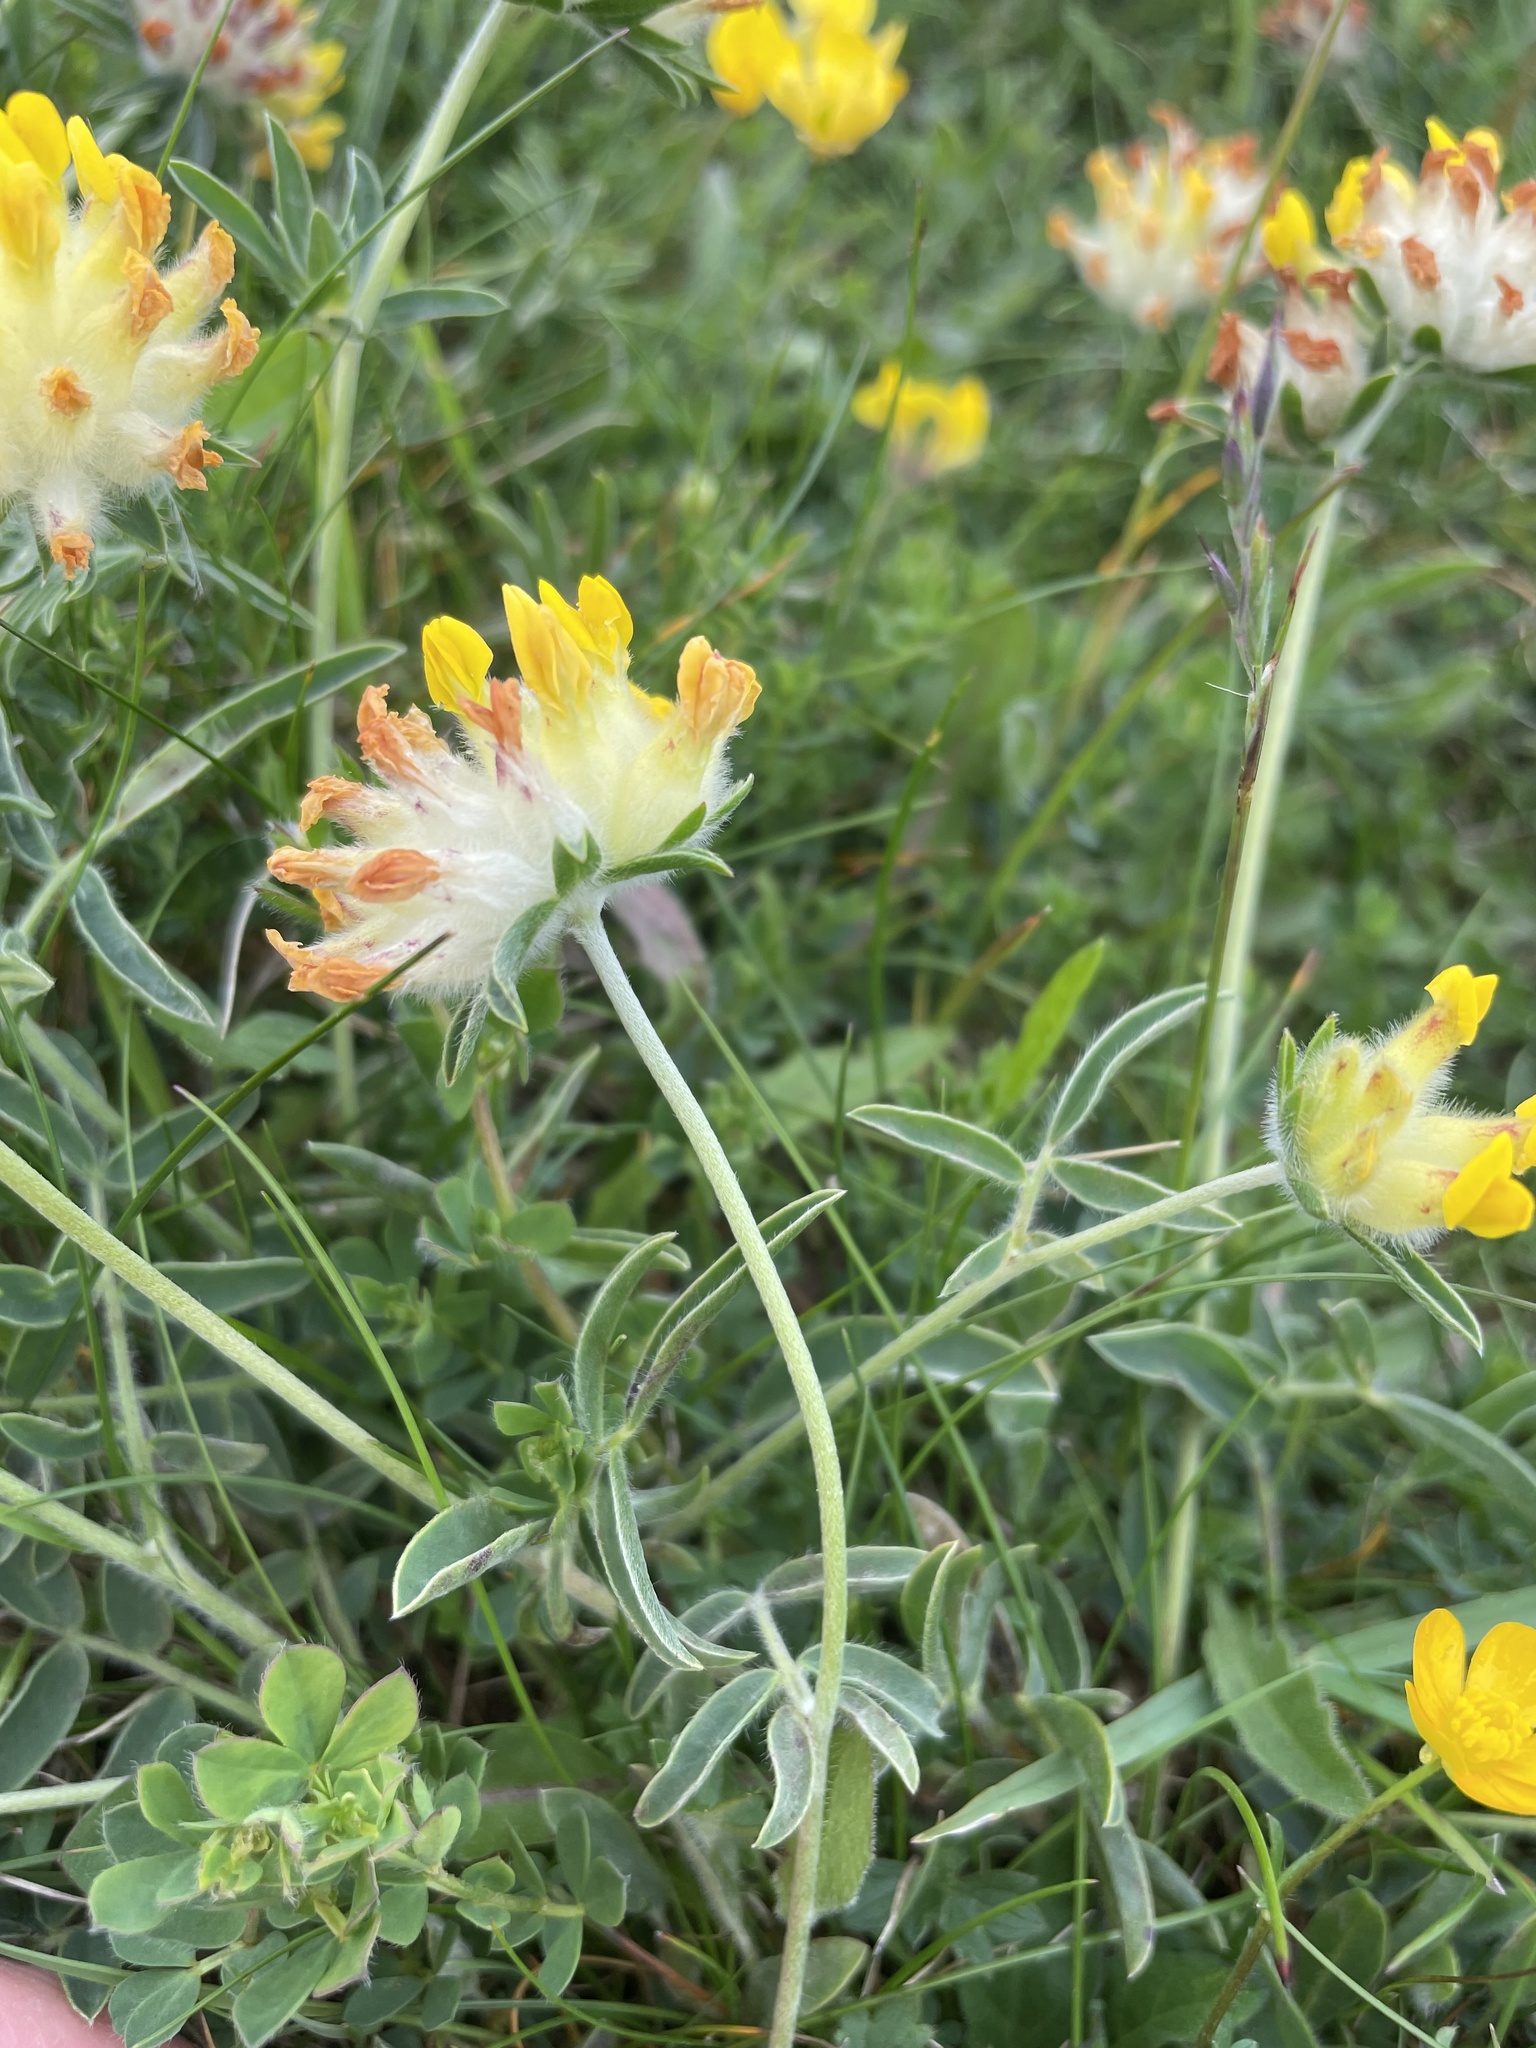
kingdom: Plantae
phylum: Tracheophyta
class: Magnoliopsida
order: Fabales
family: Fabaceae
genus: Anthyllis
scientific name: Anthyllis vulneraria
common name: Kidney vetch
